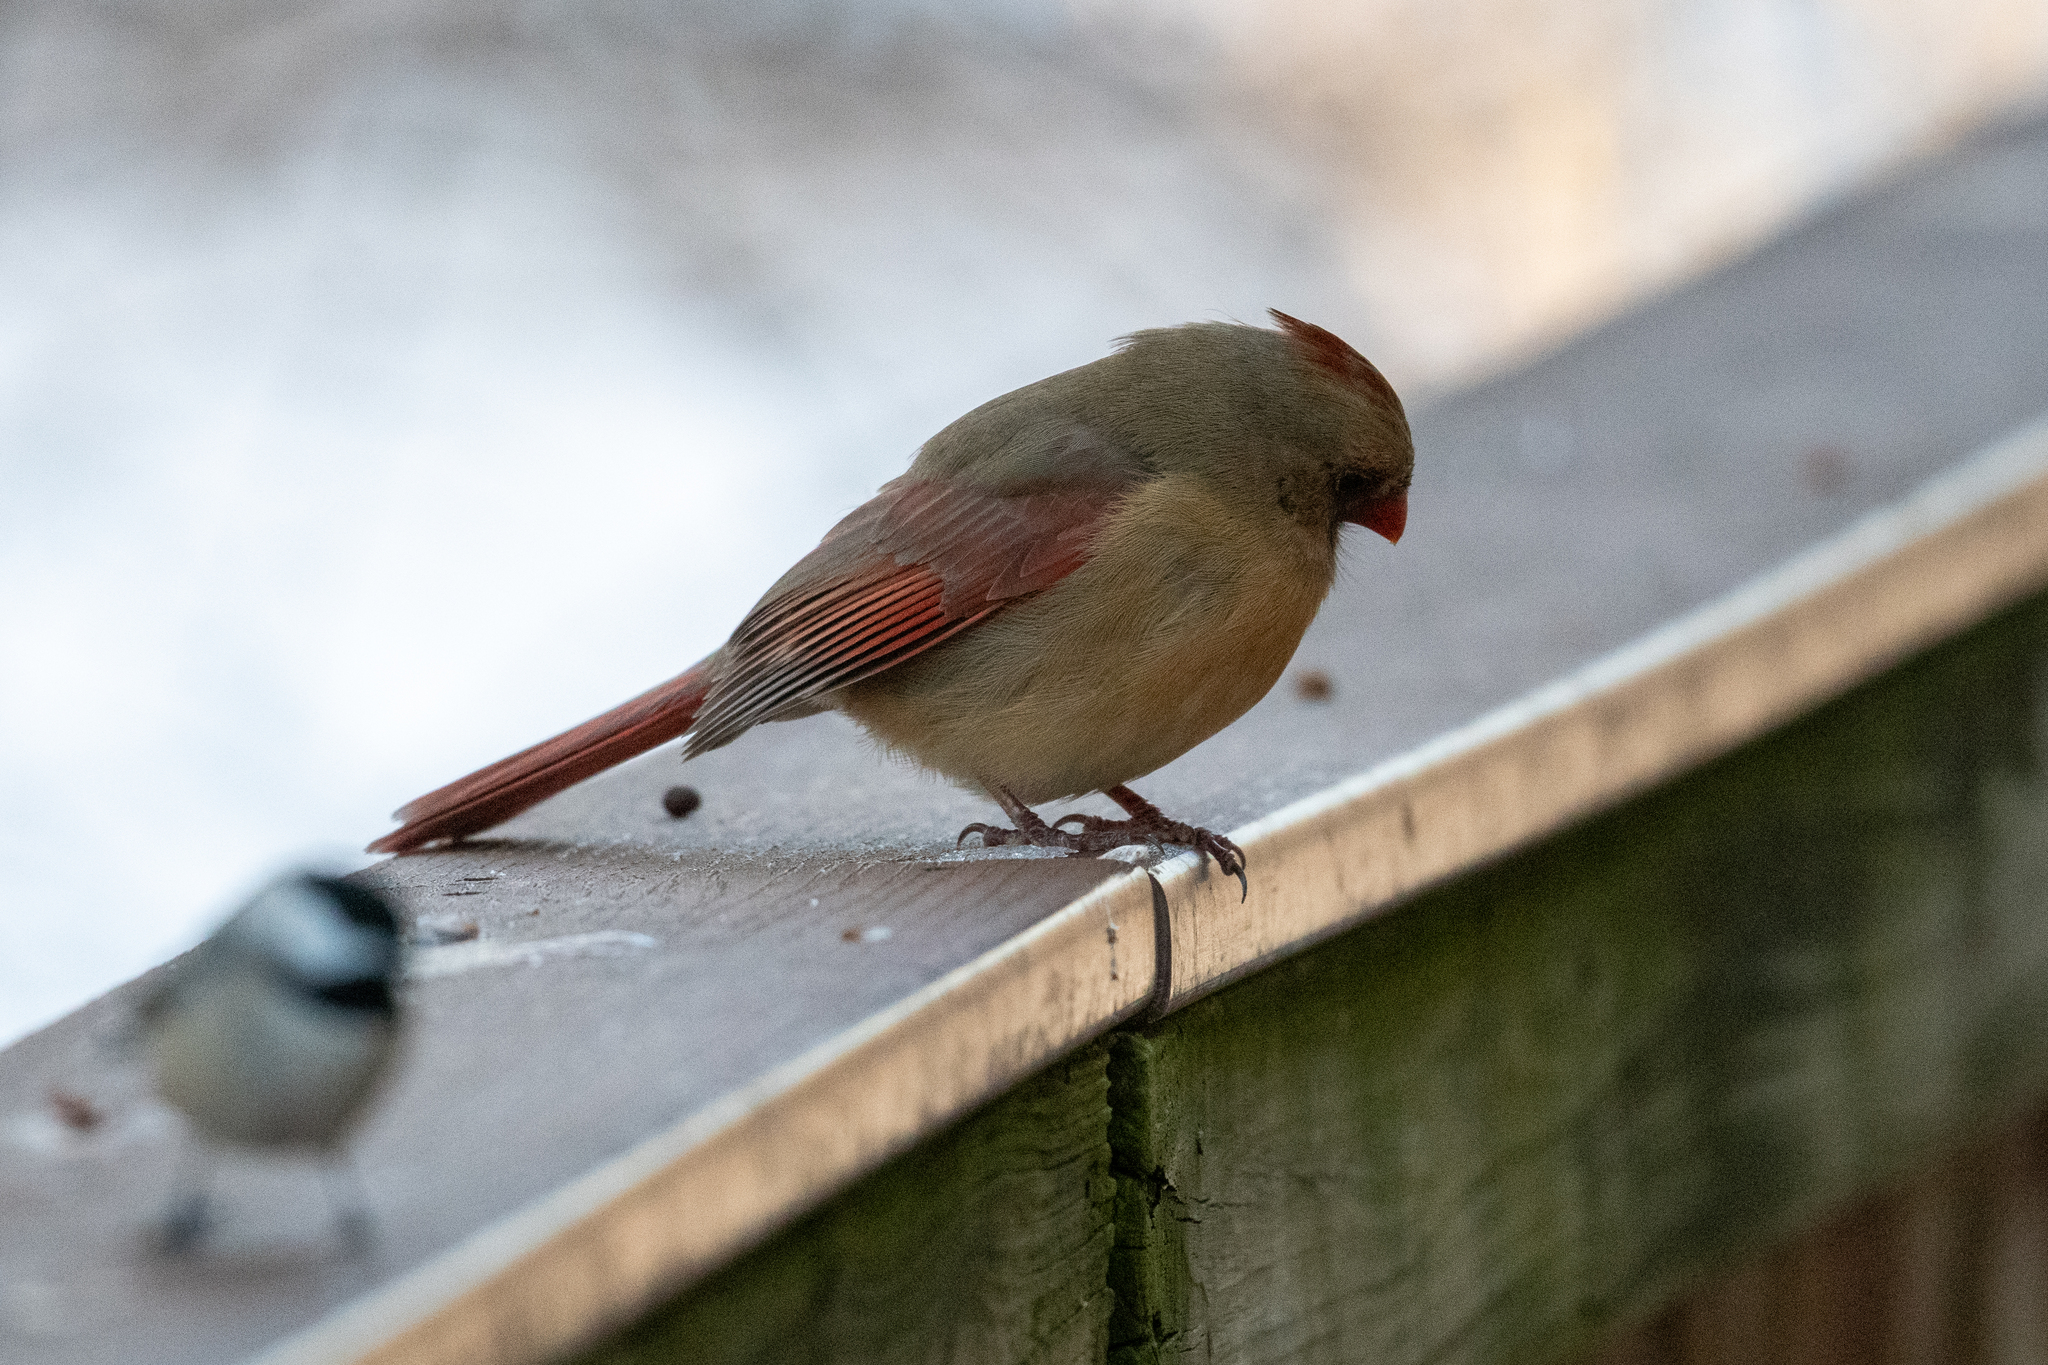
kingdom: Animalia
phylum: Chordata
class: Aves
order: Passeriformes
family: Cardinalidae
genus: Cardinalis
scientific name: Cardinalis cardinalis
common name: Northern cardinal
